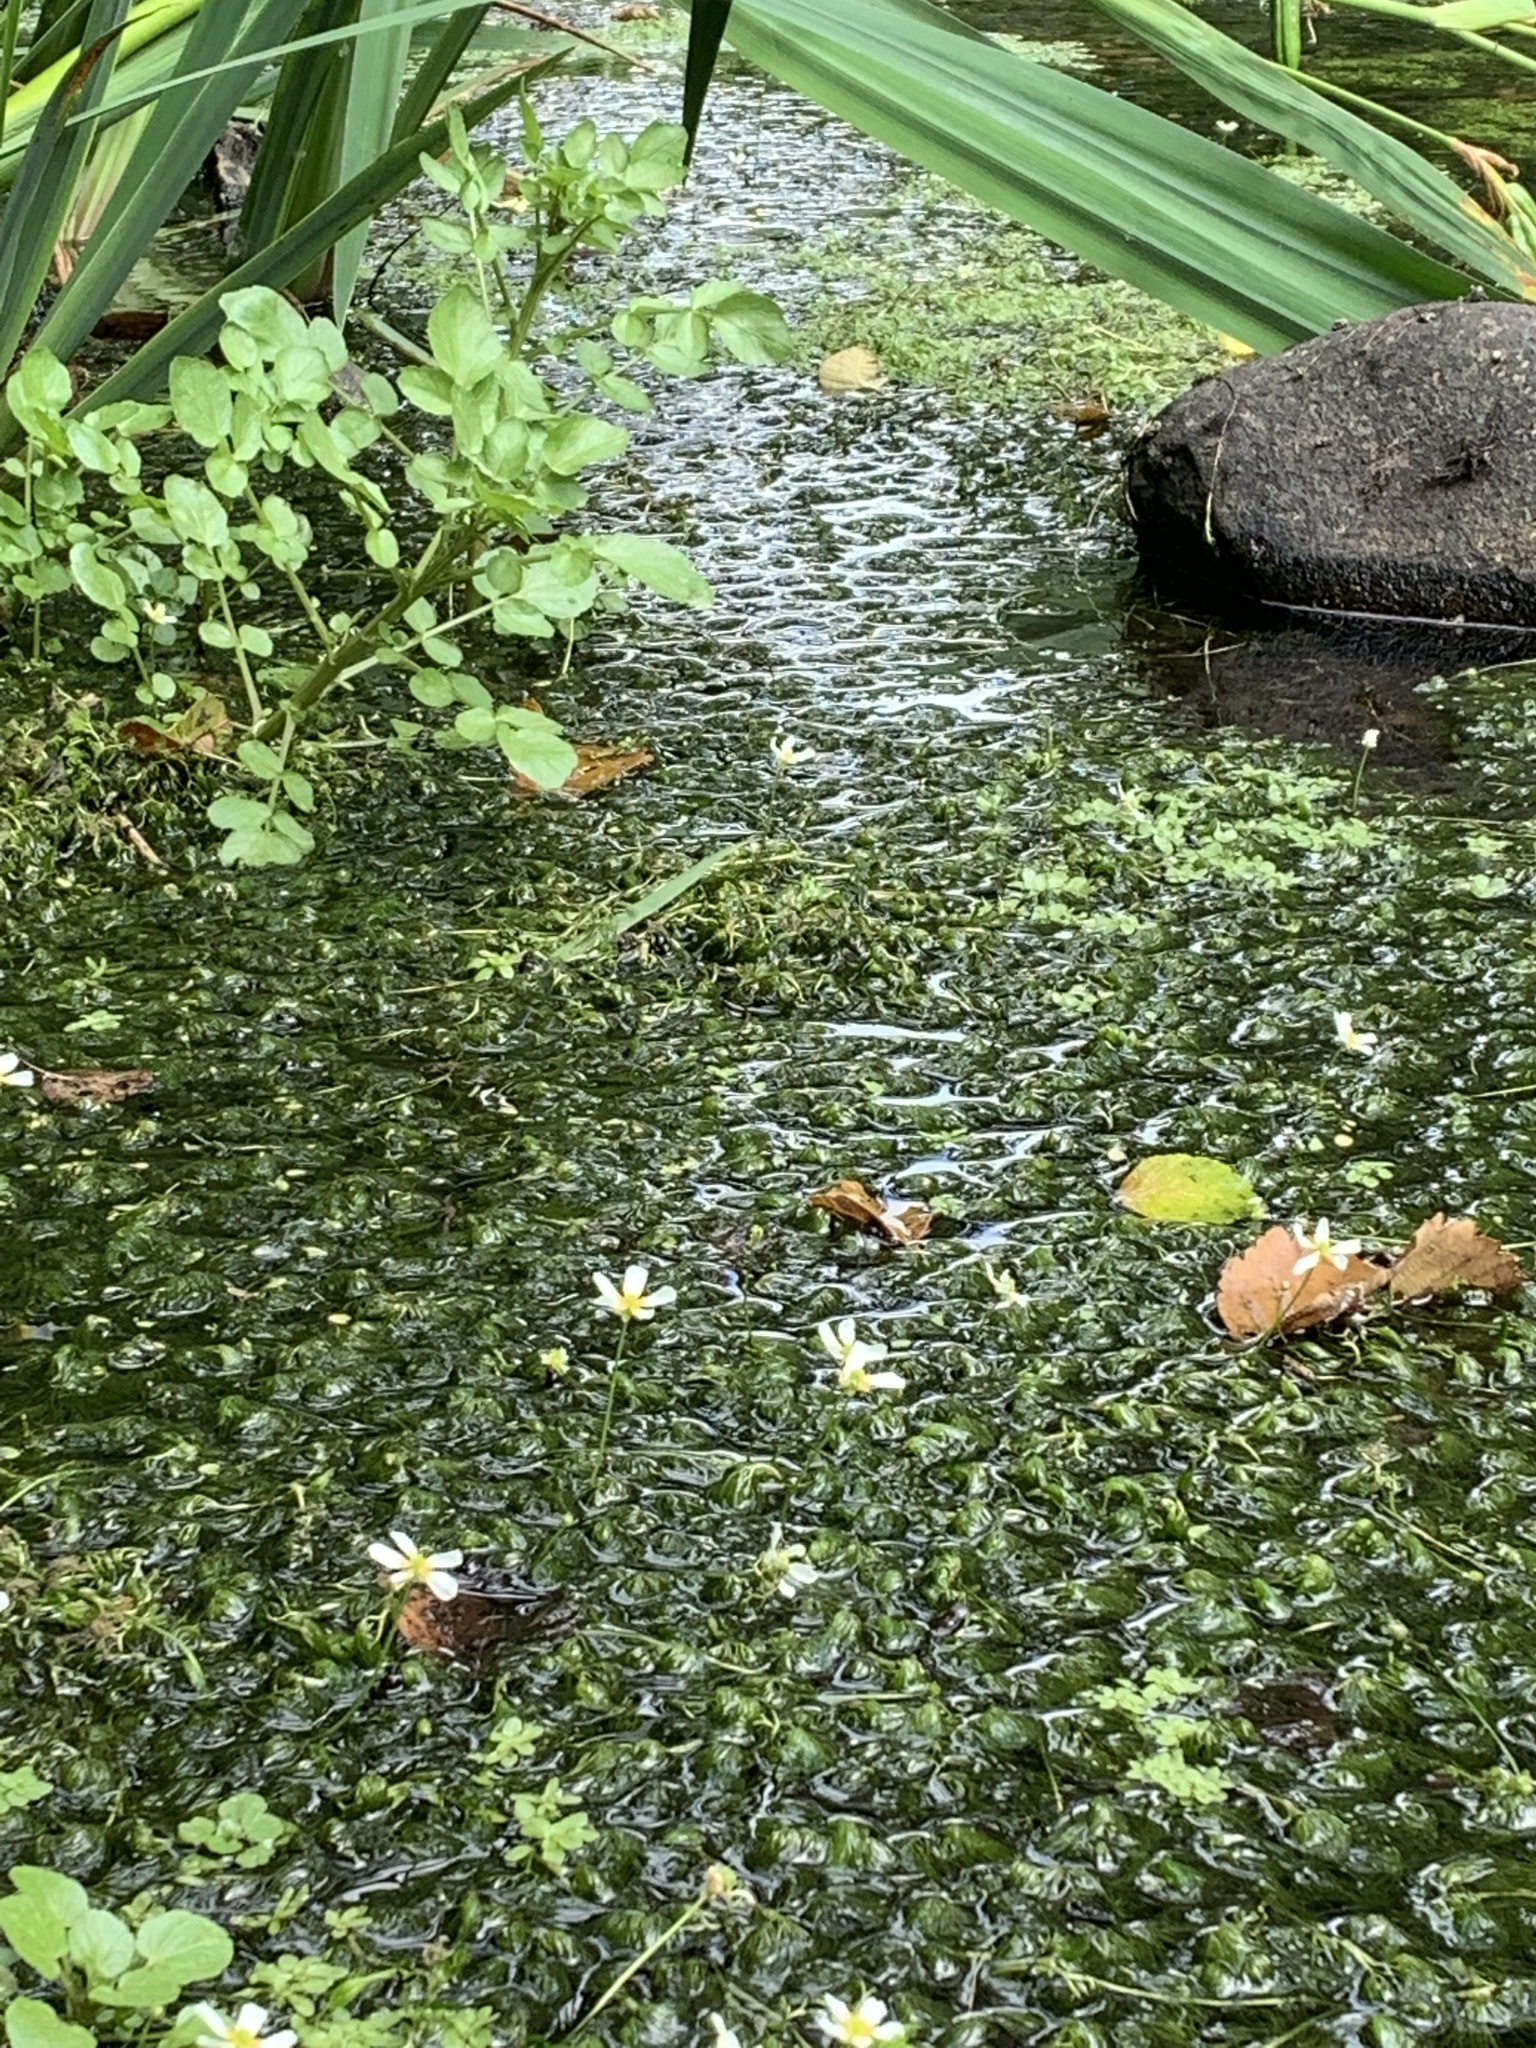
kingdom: Plantae
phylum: Tracheophyta
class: Magnoliopsida
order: Ranunculales
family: Ranunculaceae
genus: Ranunculus
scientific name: Ranunculus trichophyllus
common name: Thread-leaved water-crowfoot
